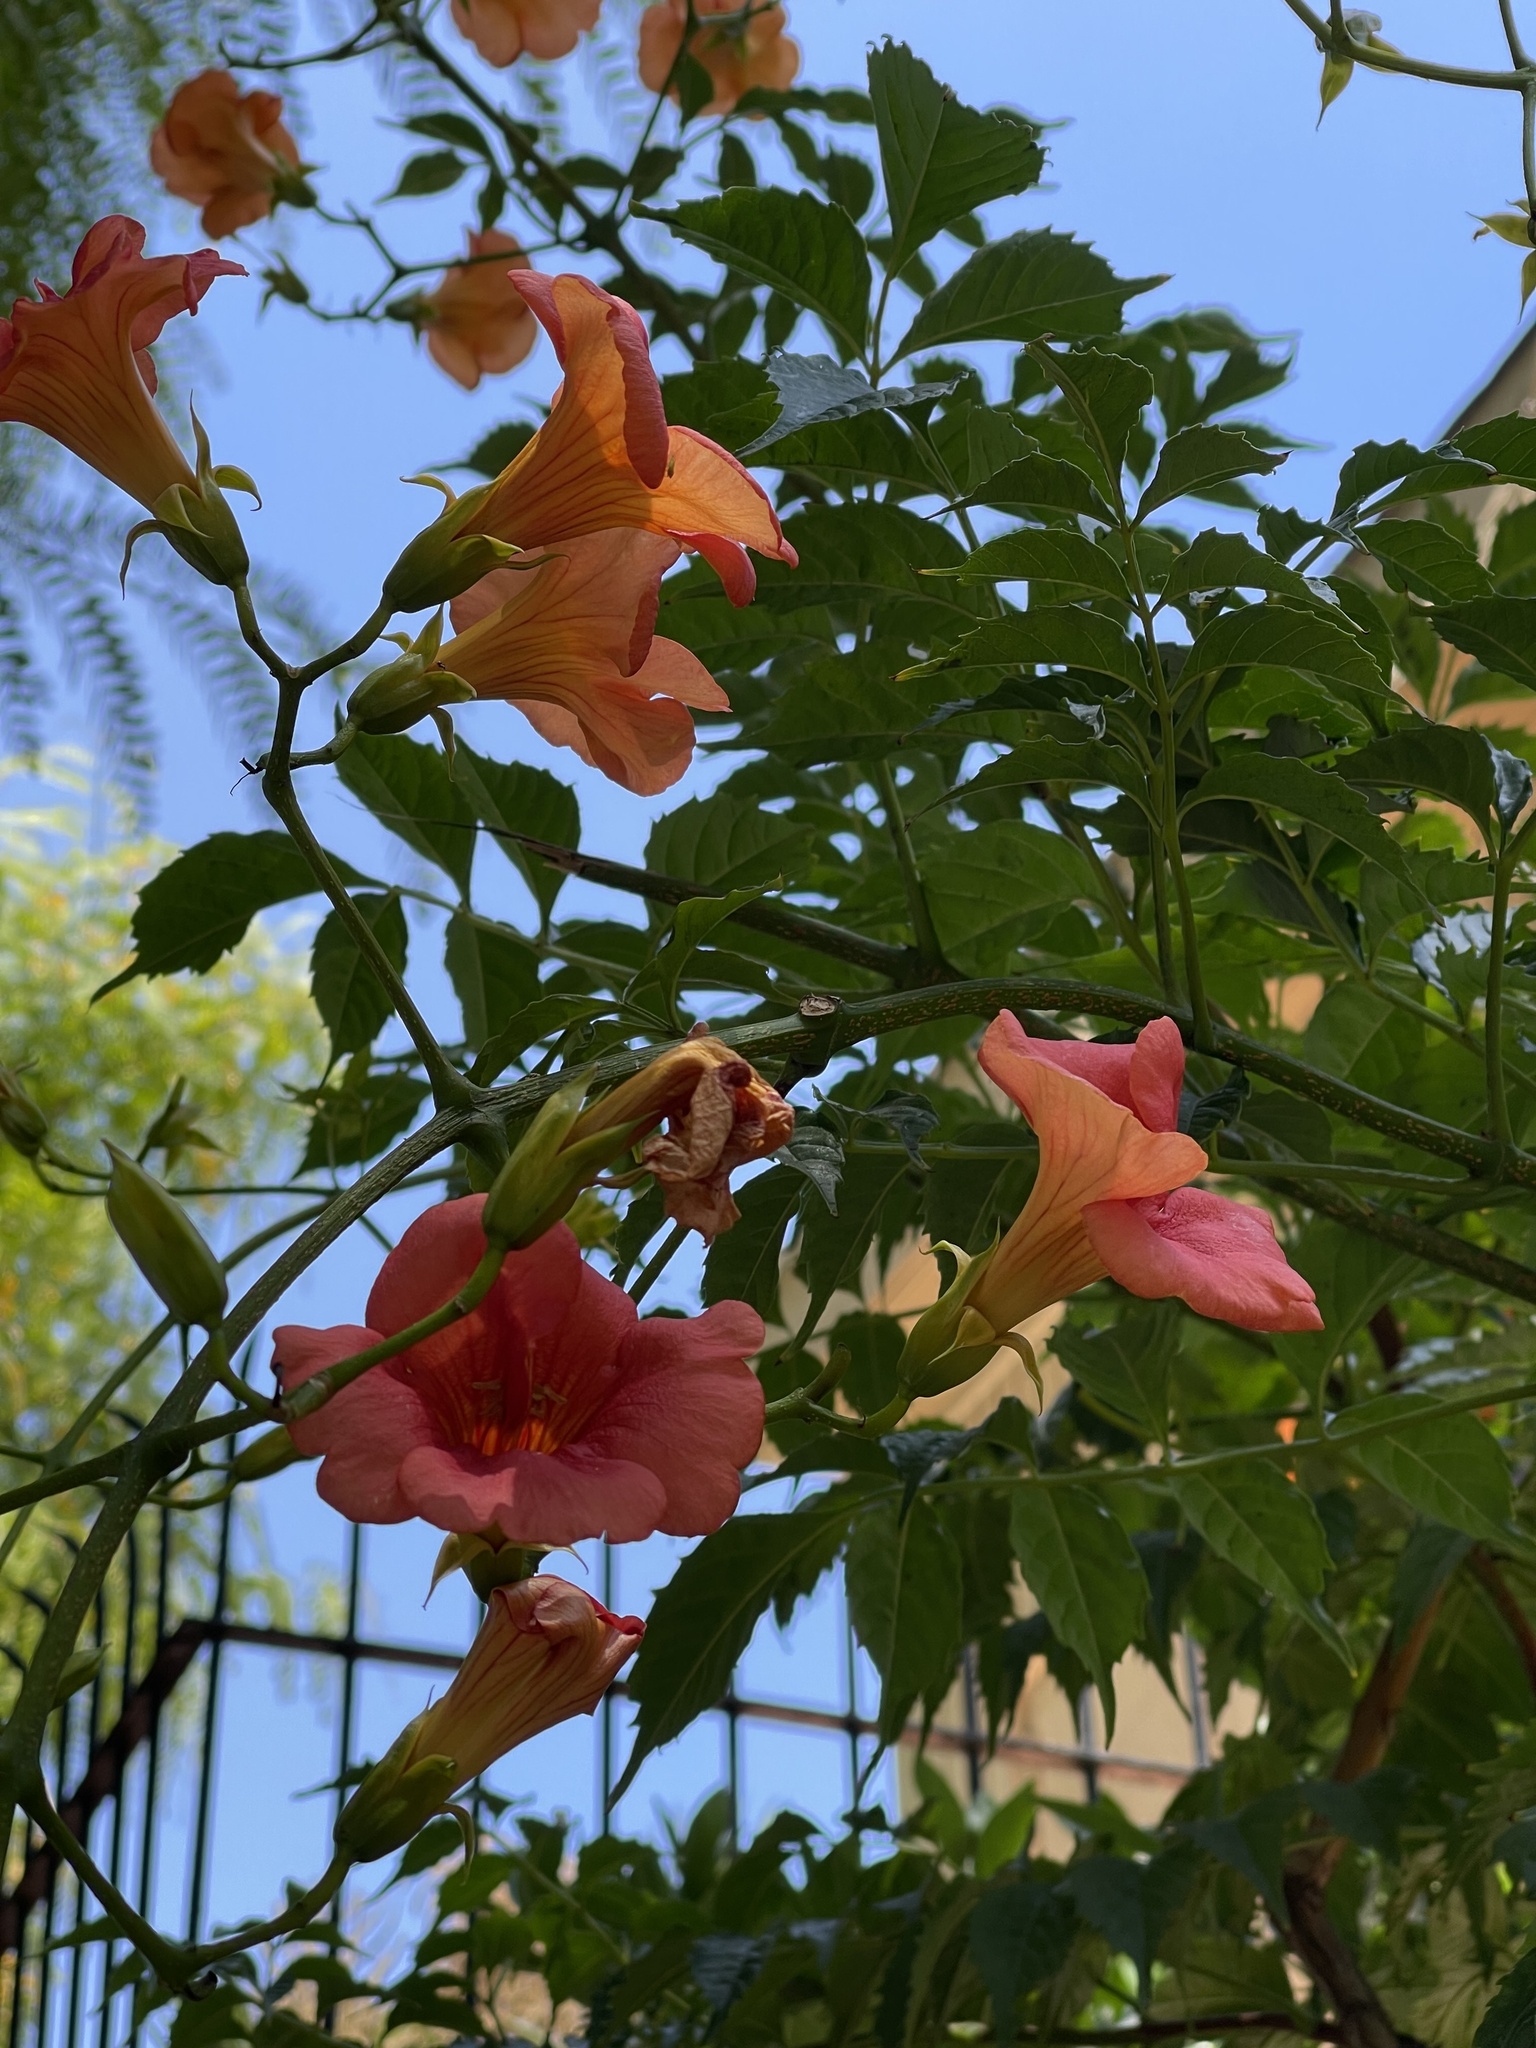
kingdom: Plantae
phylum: Tracheophyta
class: Magnoliopsida
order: Lamiales
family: Bignoniaceae
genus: Campsis
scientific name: Campsis grandiflora
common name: Chinese trumpet-creeper
